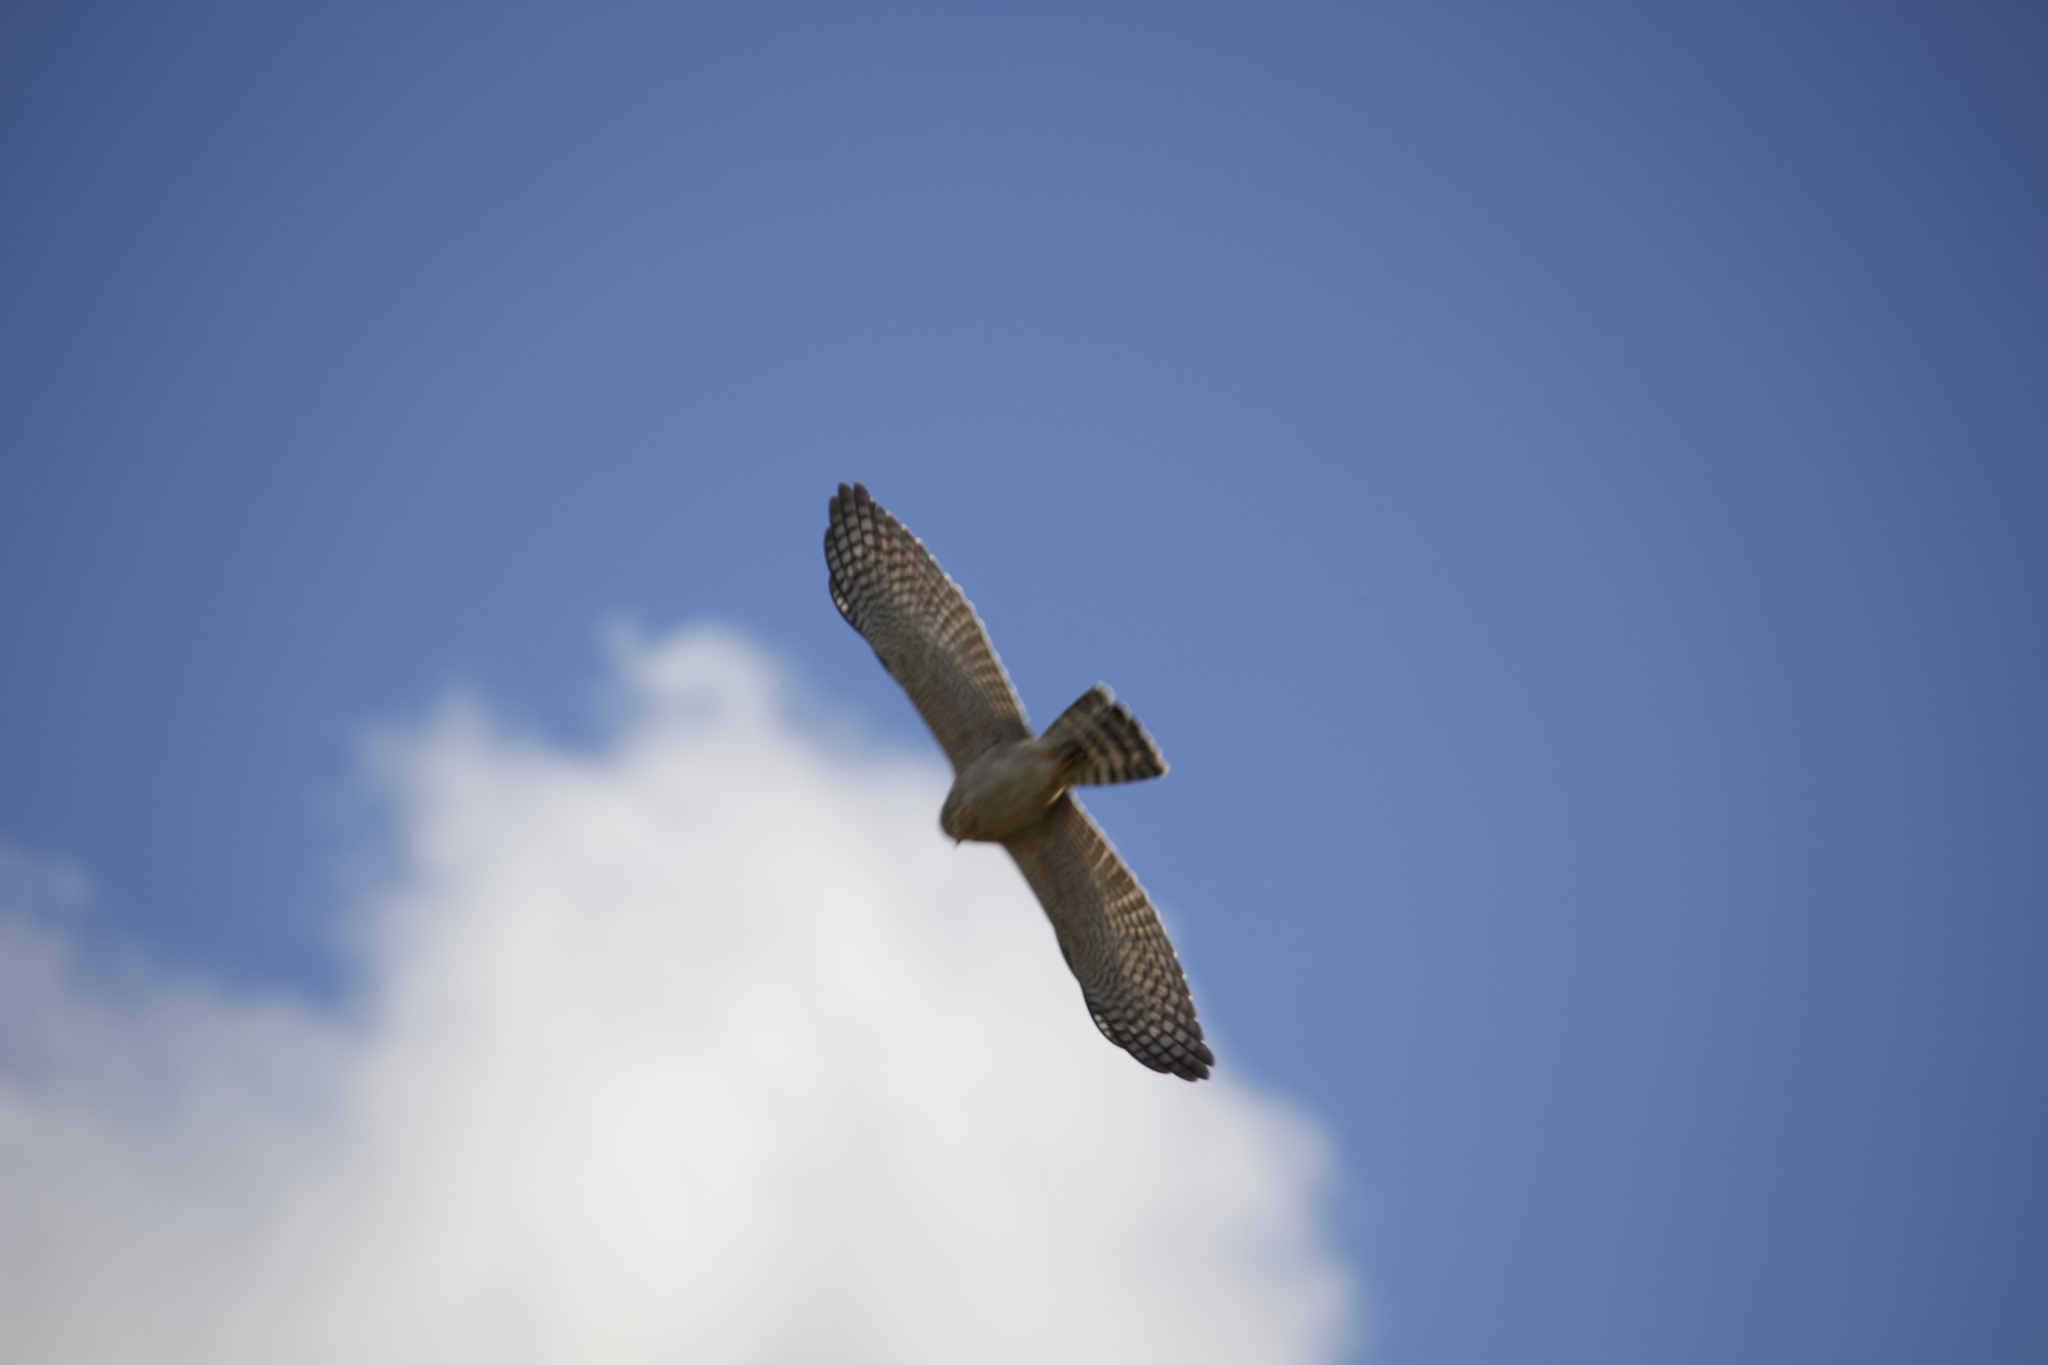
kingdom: Animalia
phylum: Chordata
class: Aves
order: Accipitriformes
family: Accipitridae
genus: Accipiter
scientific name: Accipiter ovampensis
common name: Ovambo sparrowhawk
